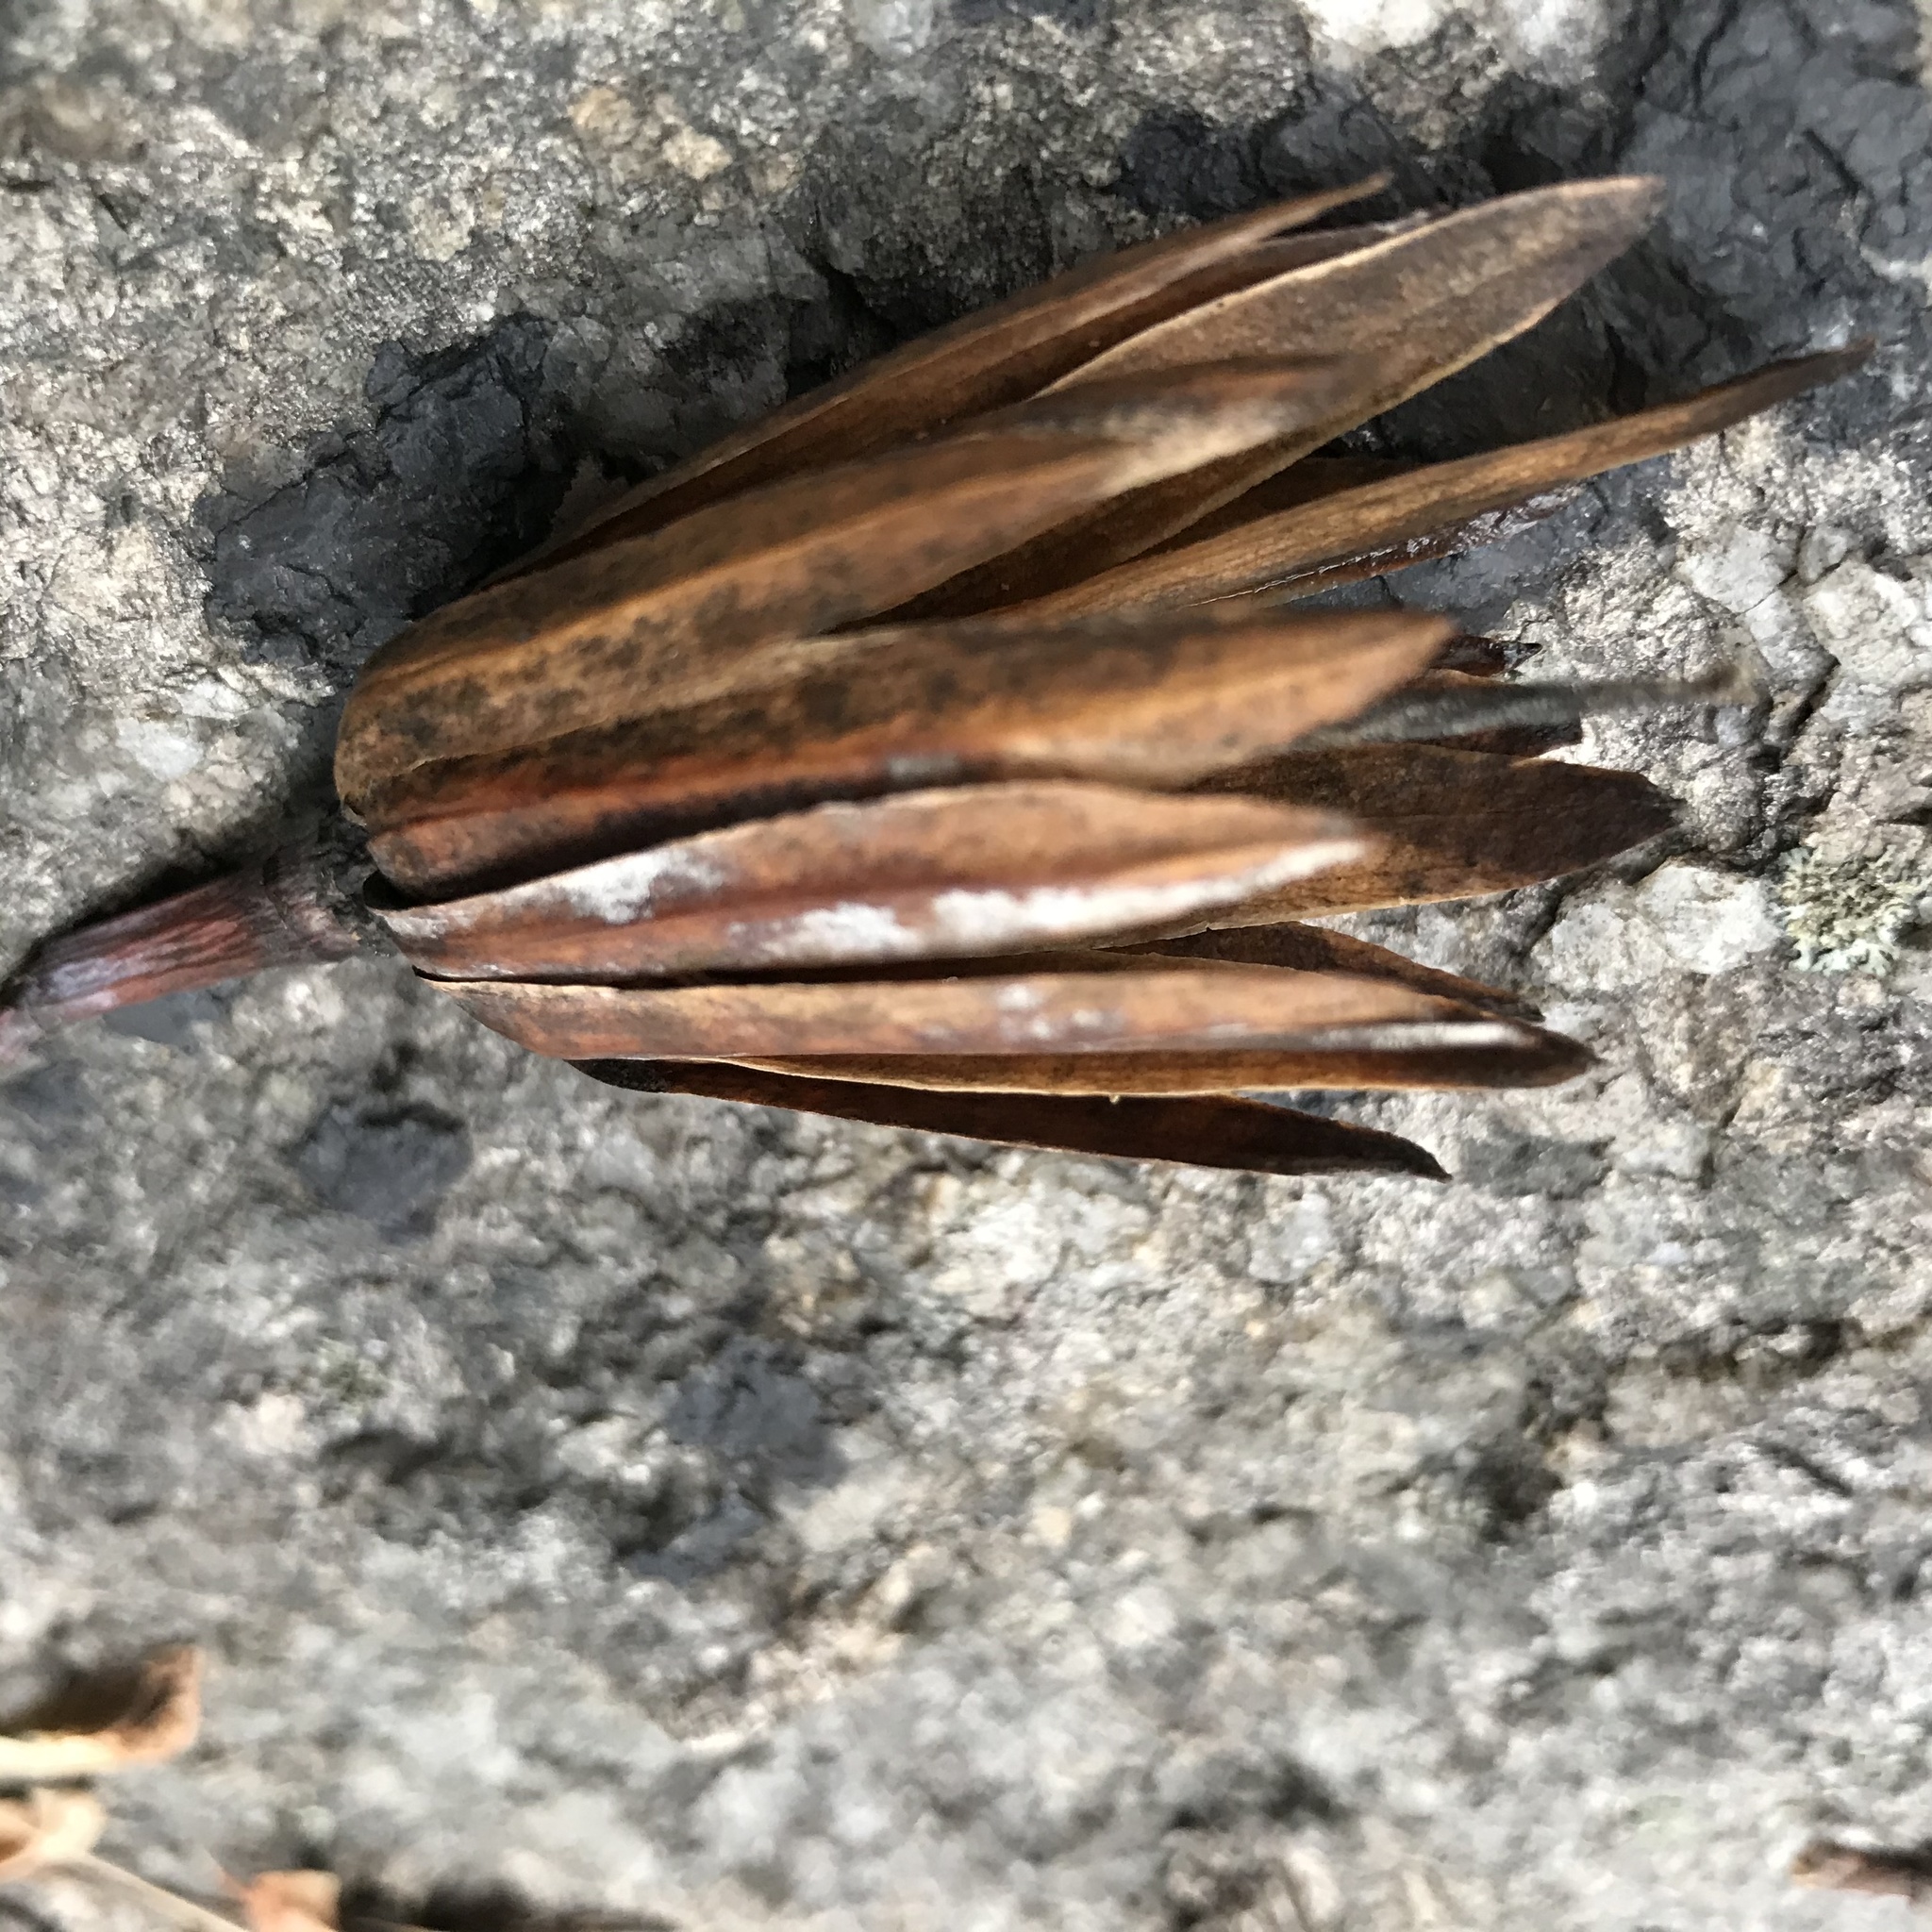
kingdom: Plantae
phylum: Tracheophyta
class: Magnoliopsida
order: Magnoliales
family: Magnoliaceae
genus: Liriodendron
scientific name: Liriodendron tulipifera
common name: Tulip tree
